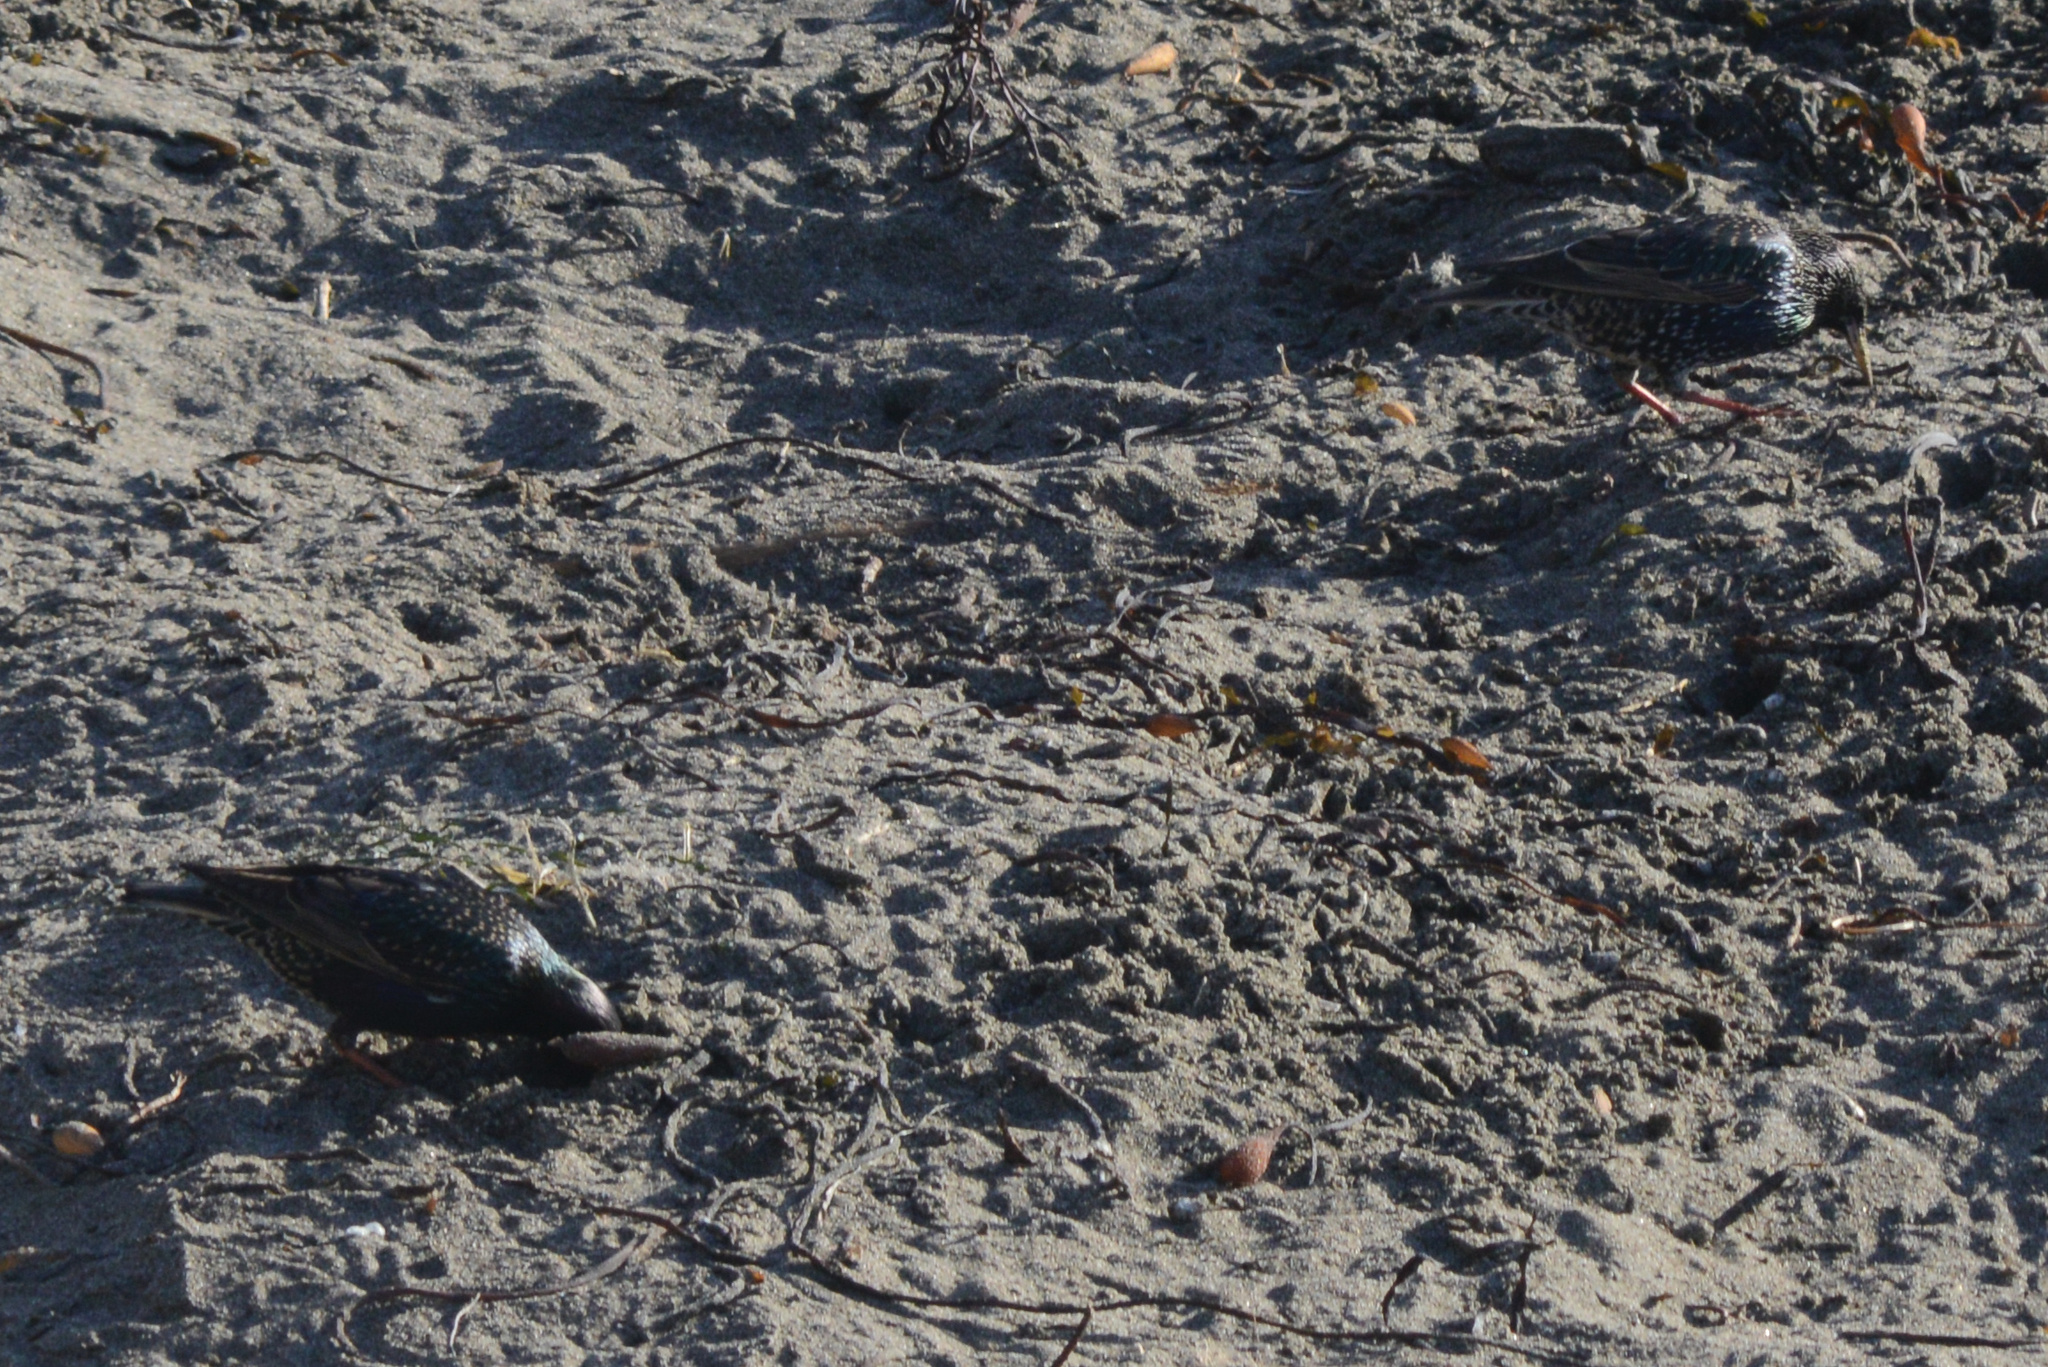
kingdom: Animalia
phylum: Chordata
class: Aves
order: Passeriformes
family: Sturnidae
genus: Sturnus
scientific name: Sturnus vulgaris
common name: Common starling
